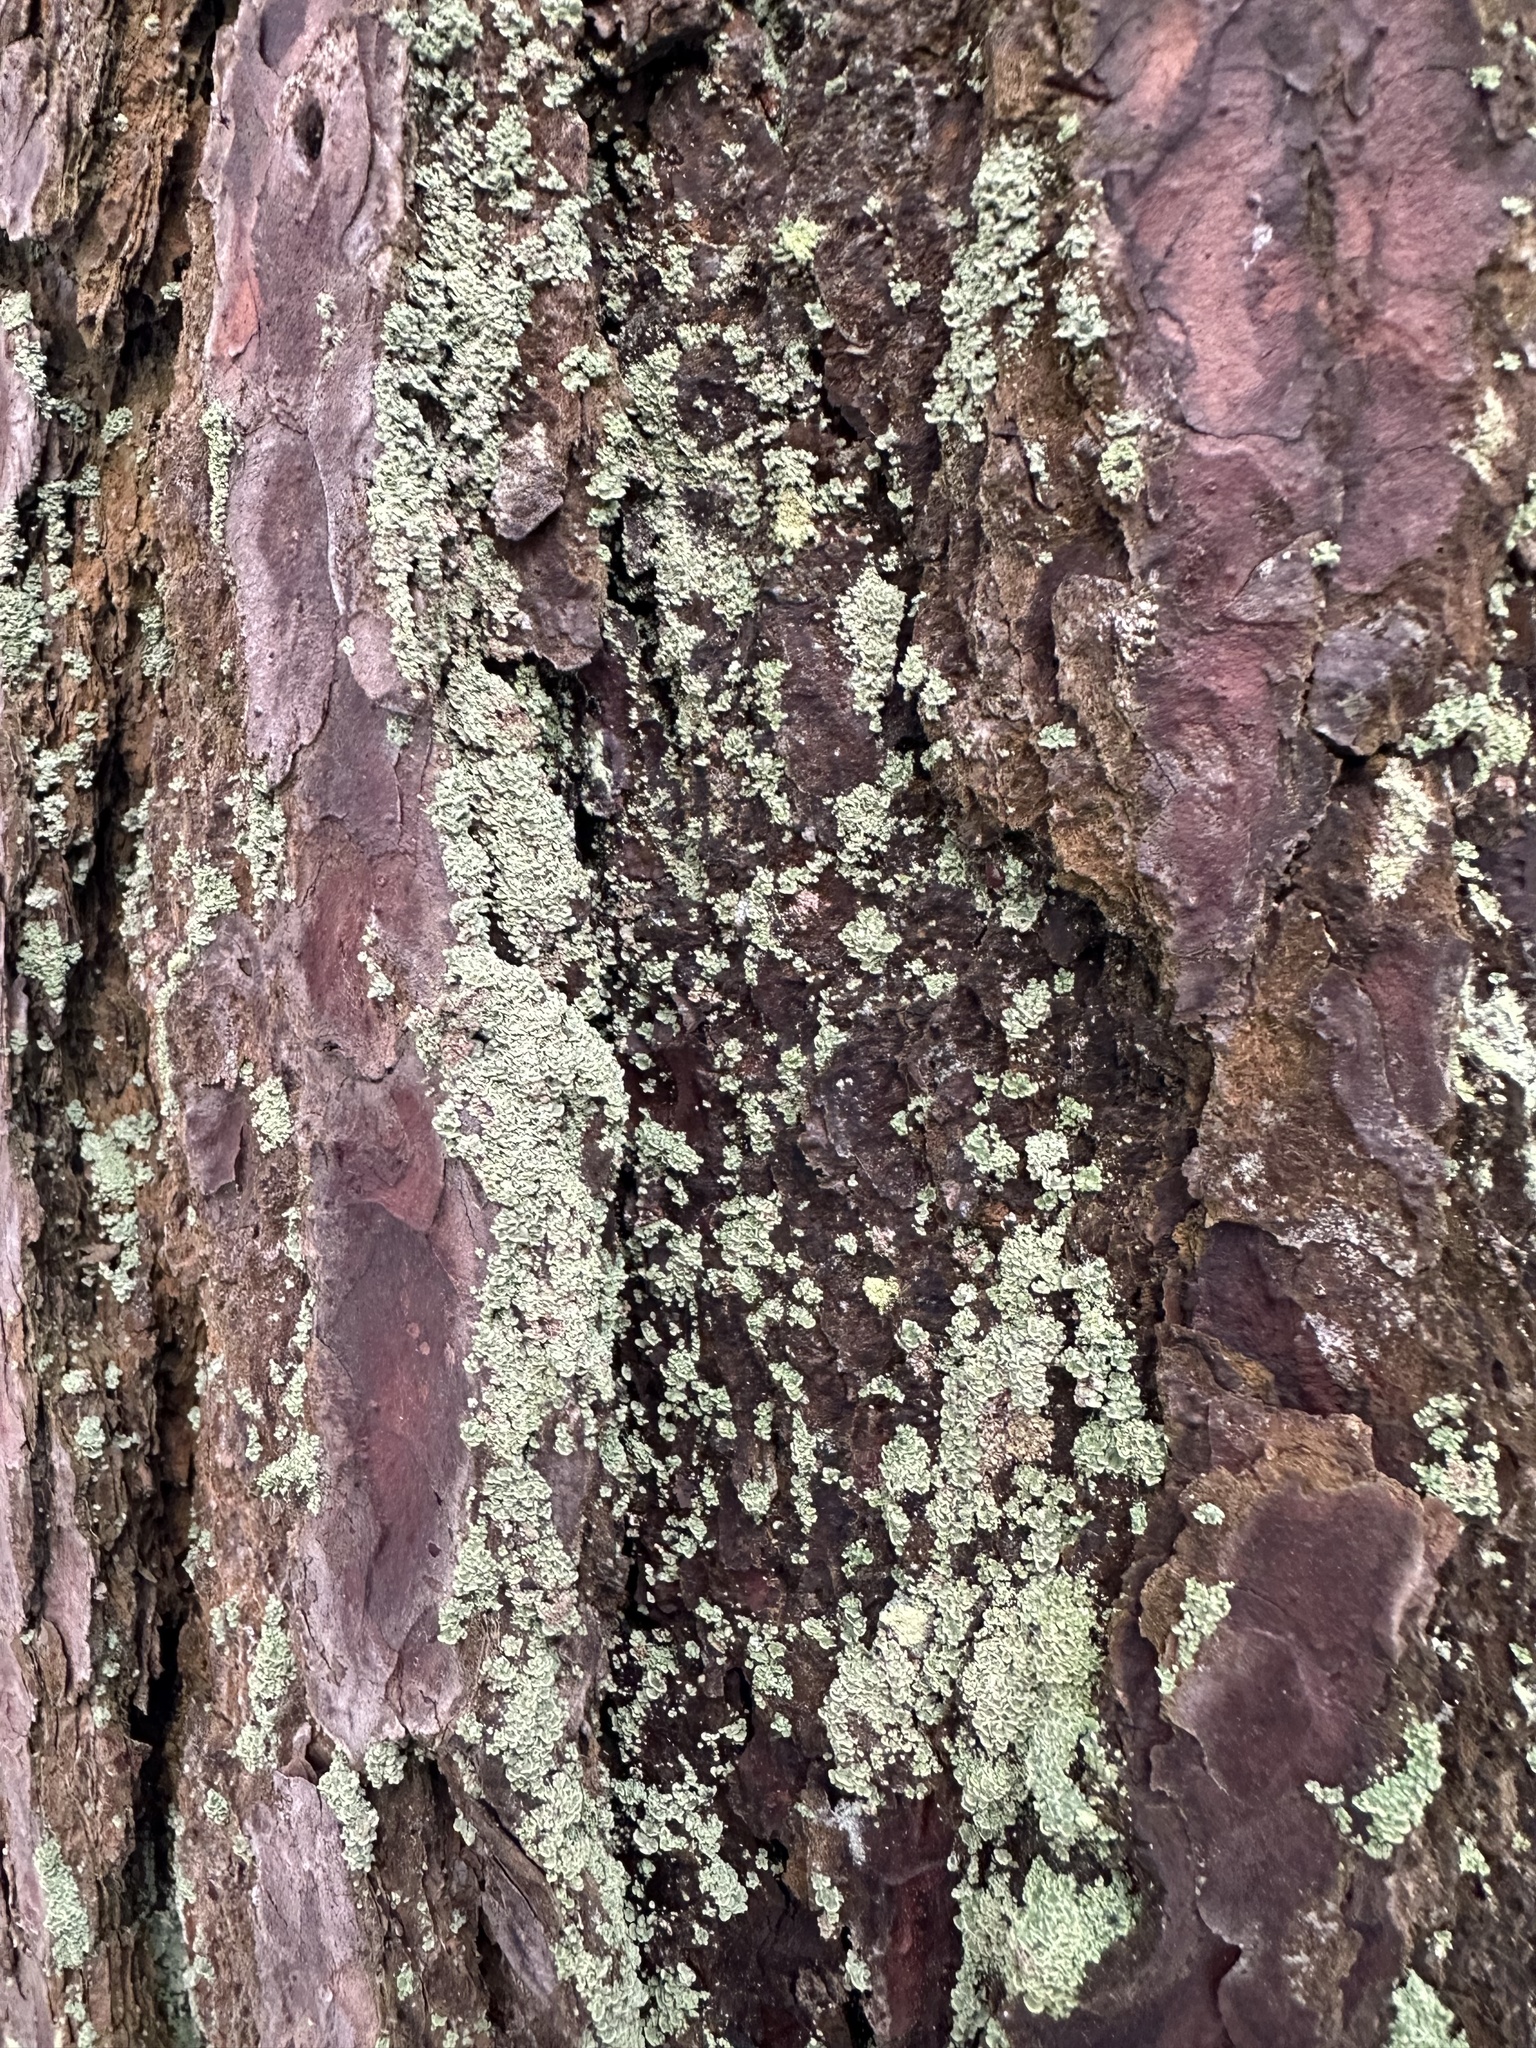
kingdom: Fungi
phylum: Ascomycota
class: Lecanoromycetes
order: Umbilicariales
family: Ophioparmaceae
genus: Hypocenomyce
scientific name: Hypocenomyce scalaris
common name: Common clam lichen
